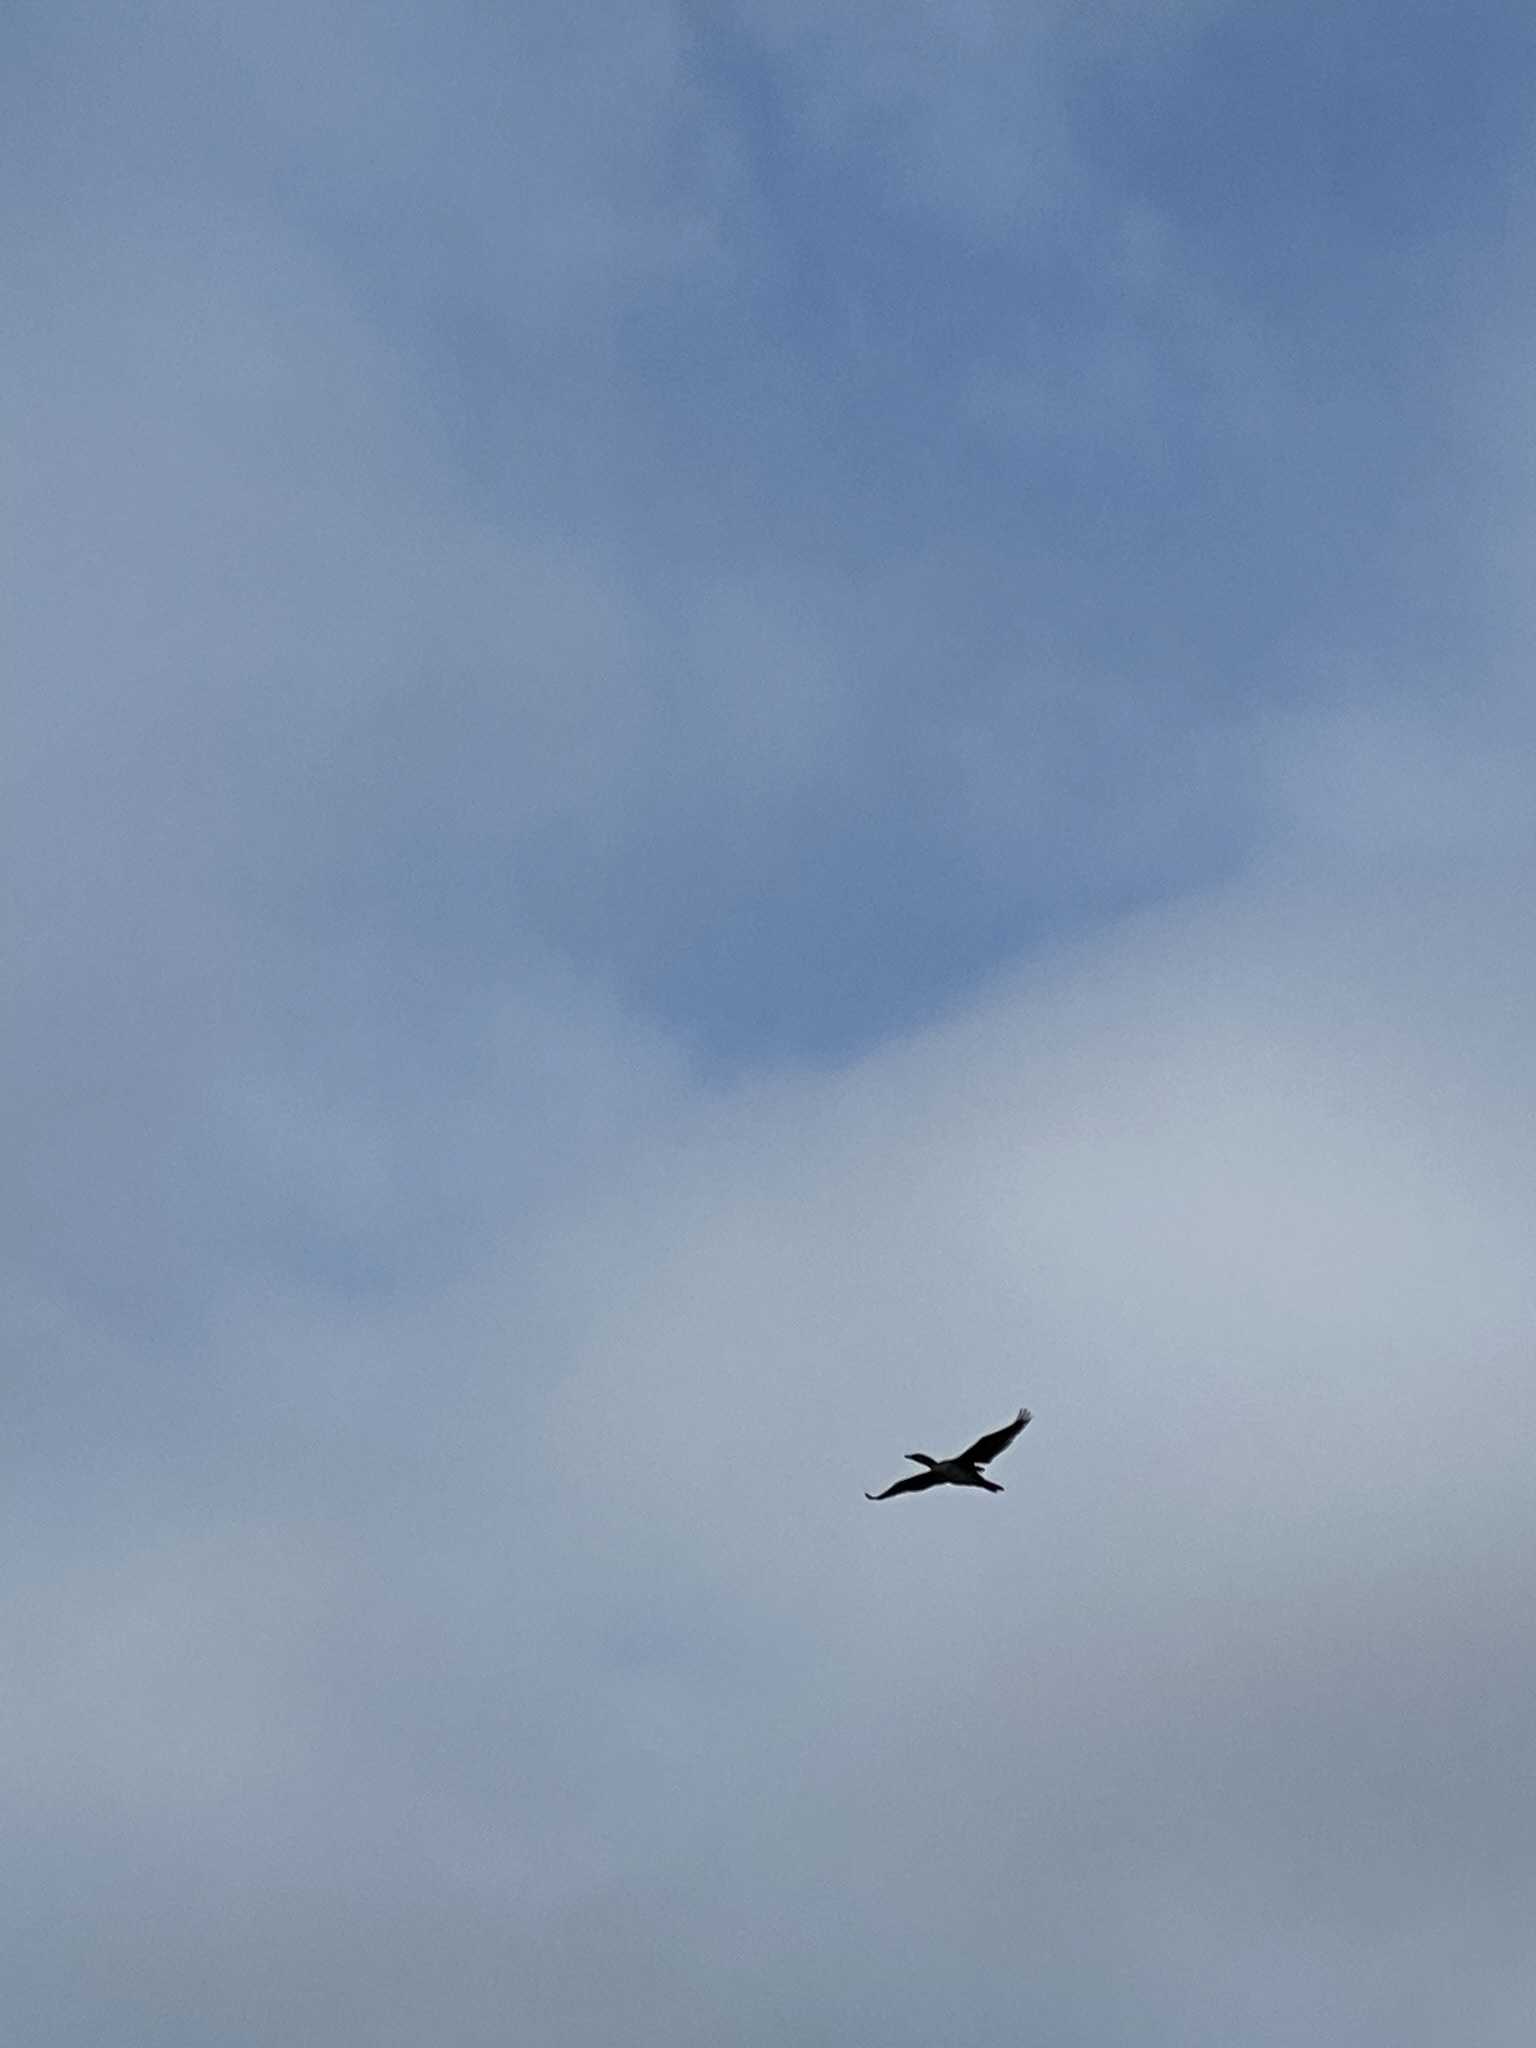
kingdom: Animalia
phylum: Chordata
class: Aves
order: Suliformes
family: Phalacrocoracidae
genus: Phalacrocorax
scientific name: Phalacrocorax auritus
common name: Double-crested cormorant
